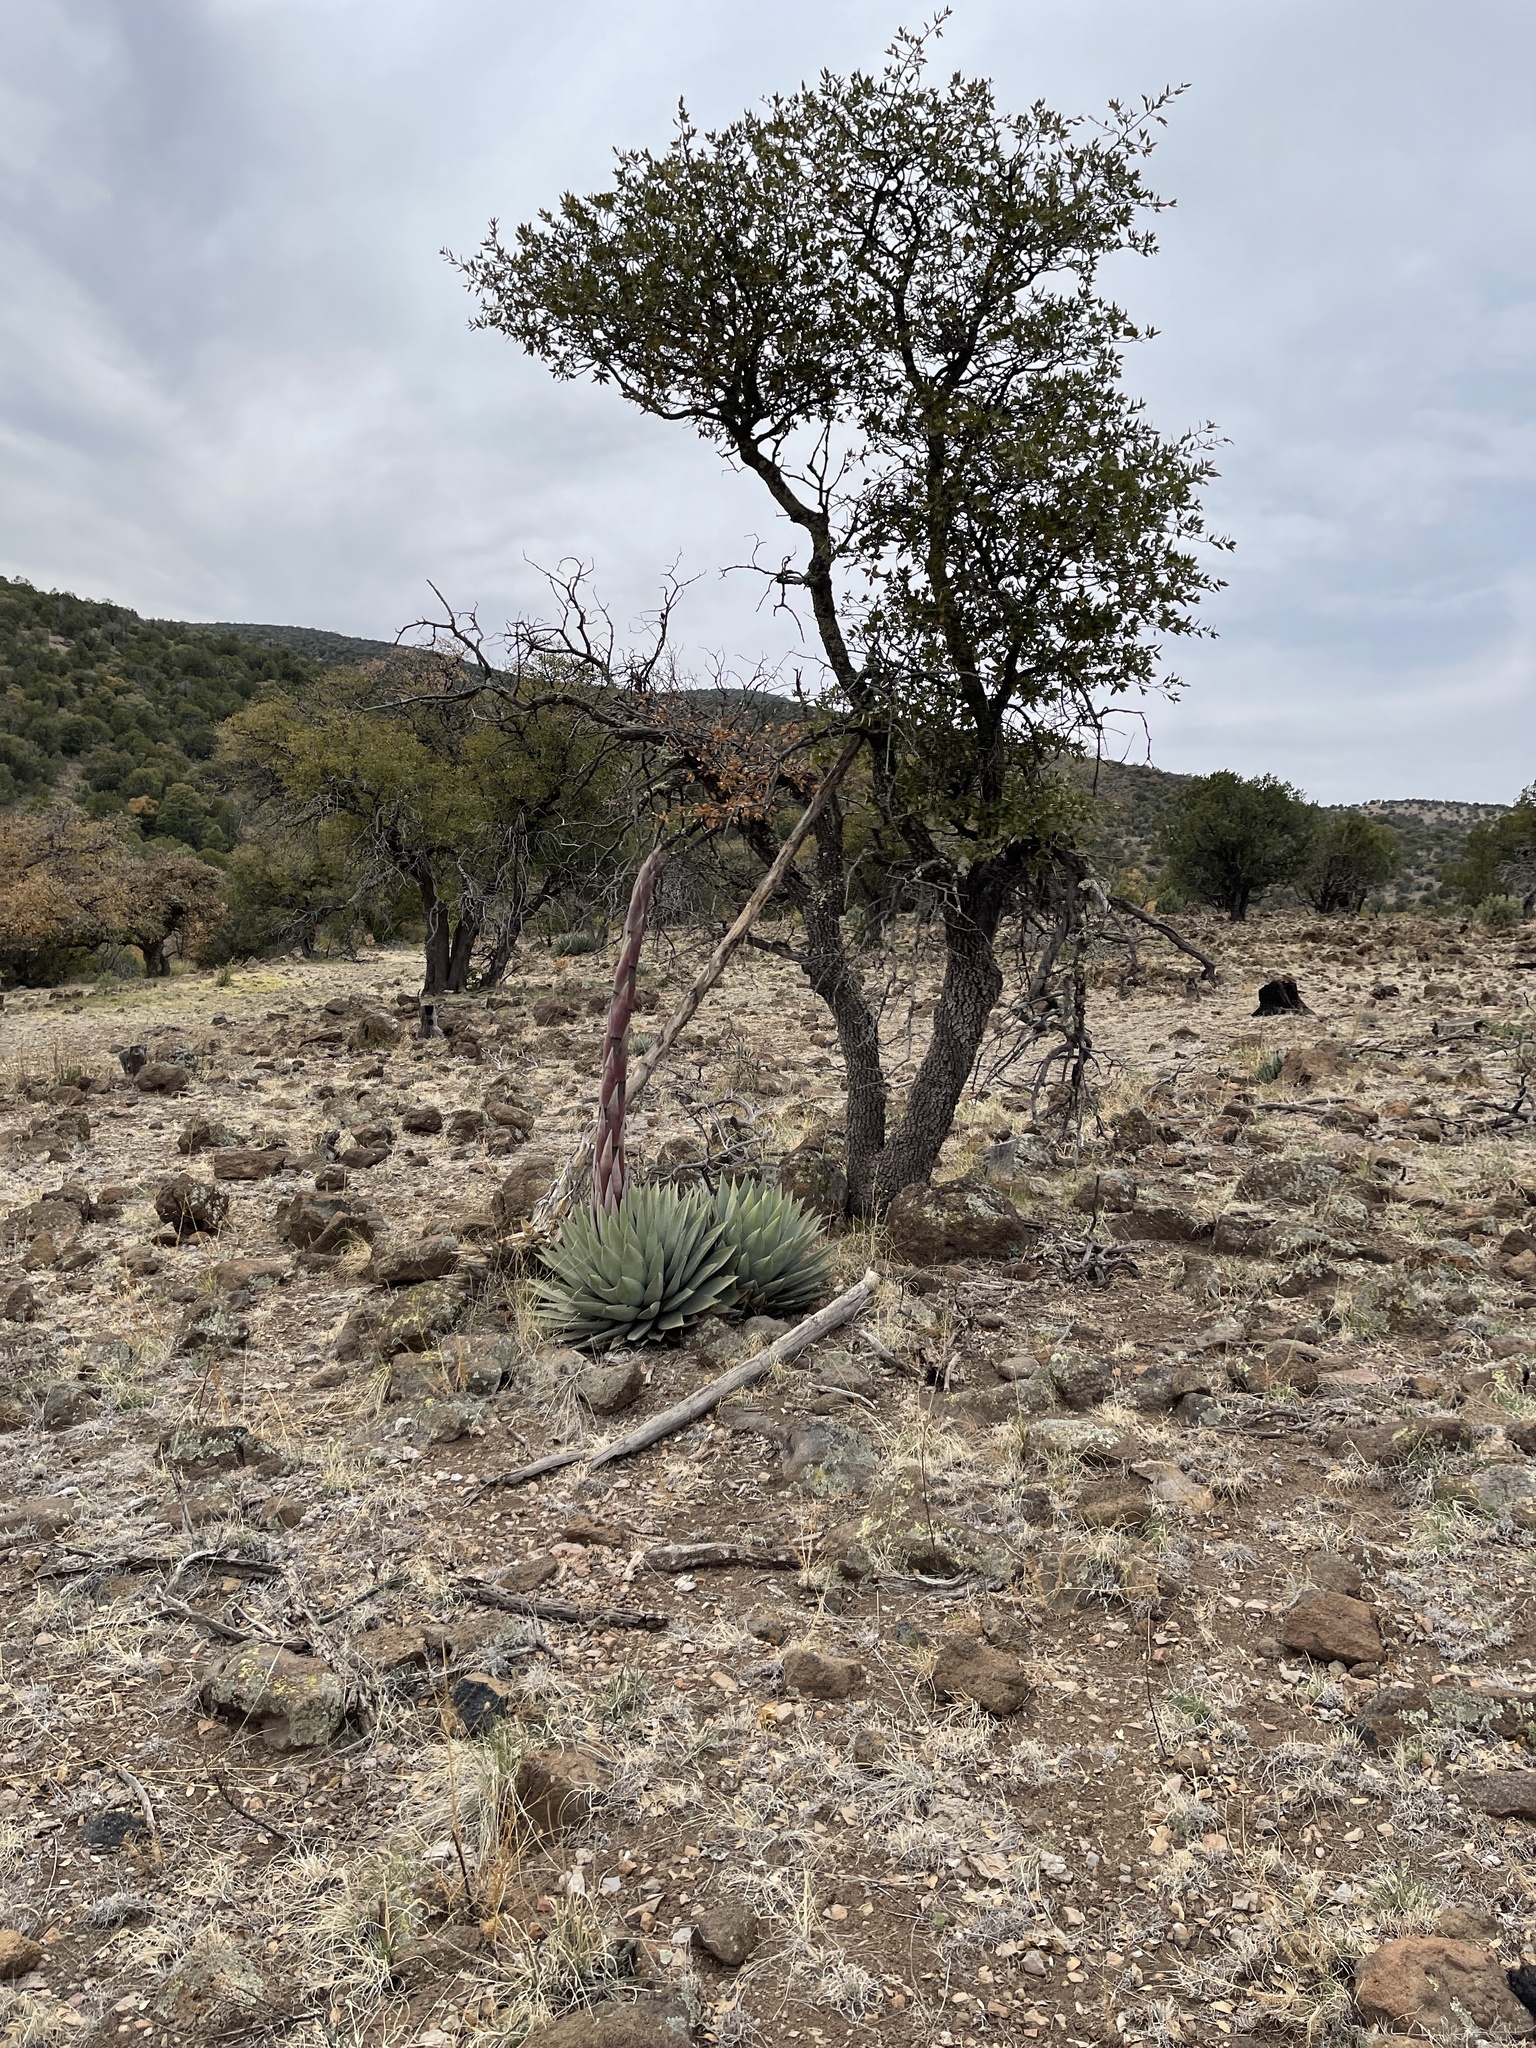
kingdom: Plantae
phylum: Tracheophyta
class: Liliopsida
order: Asparagales
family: Asparagaceae
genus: Agave
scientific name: Agave parryi
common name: Parry's agave
